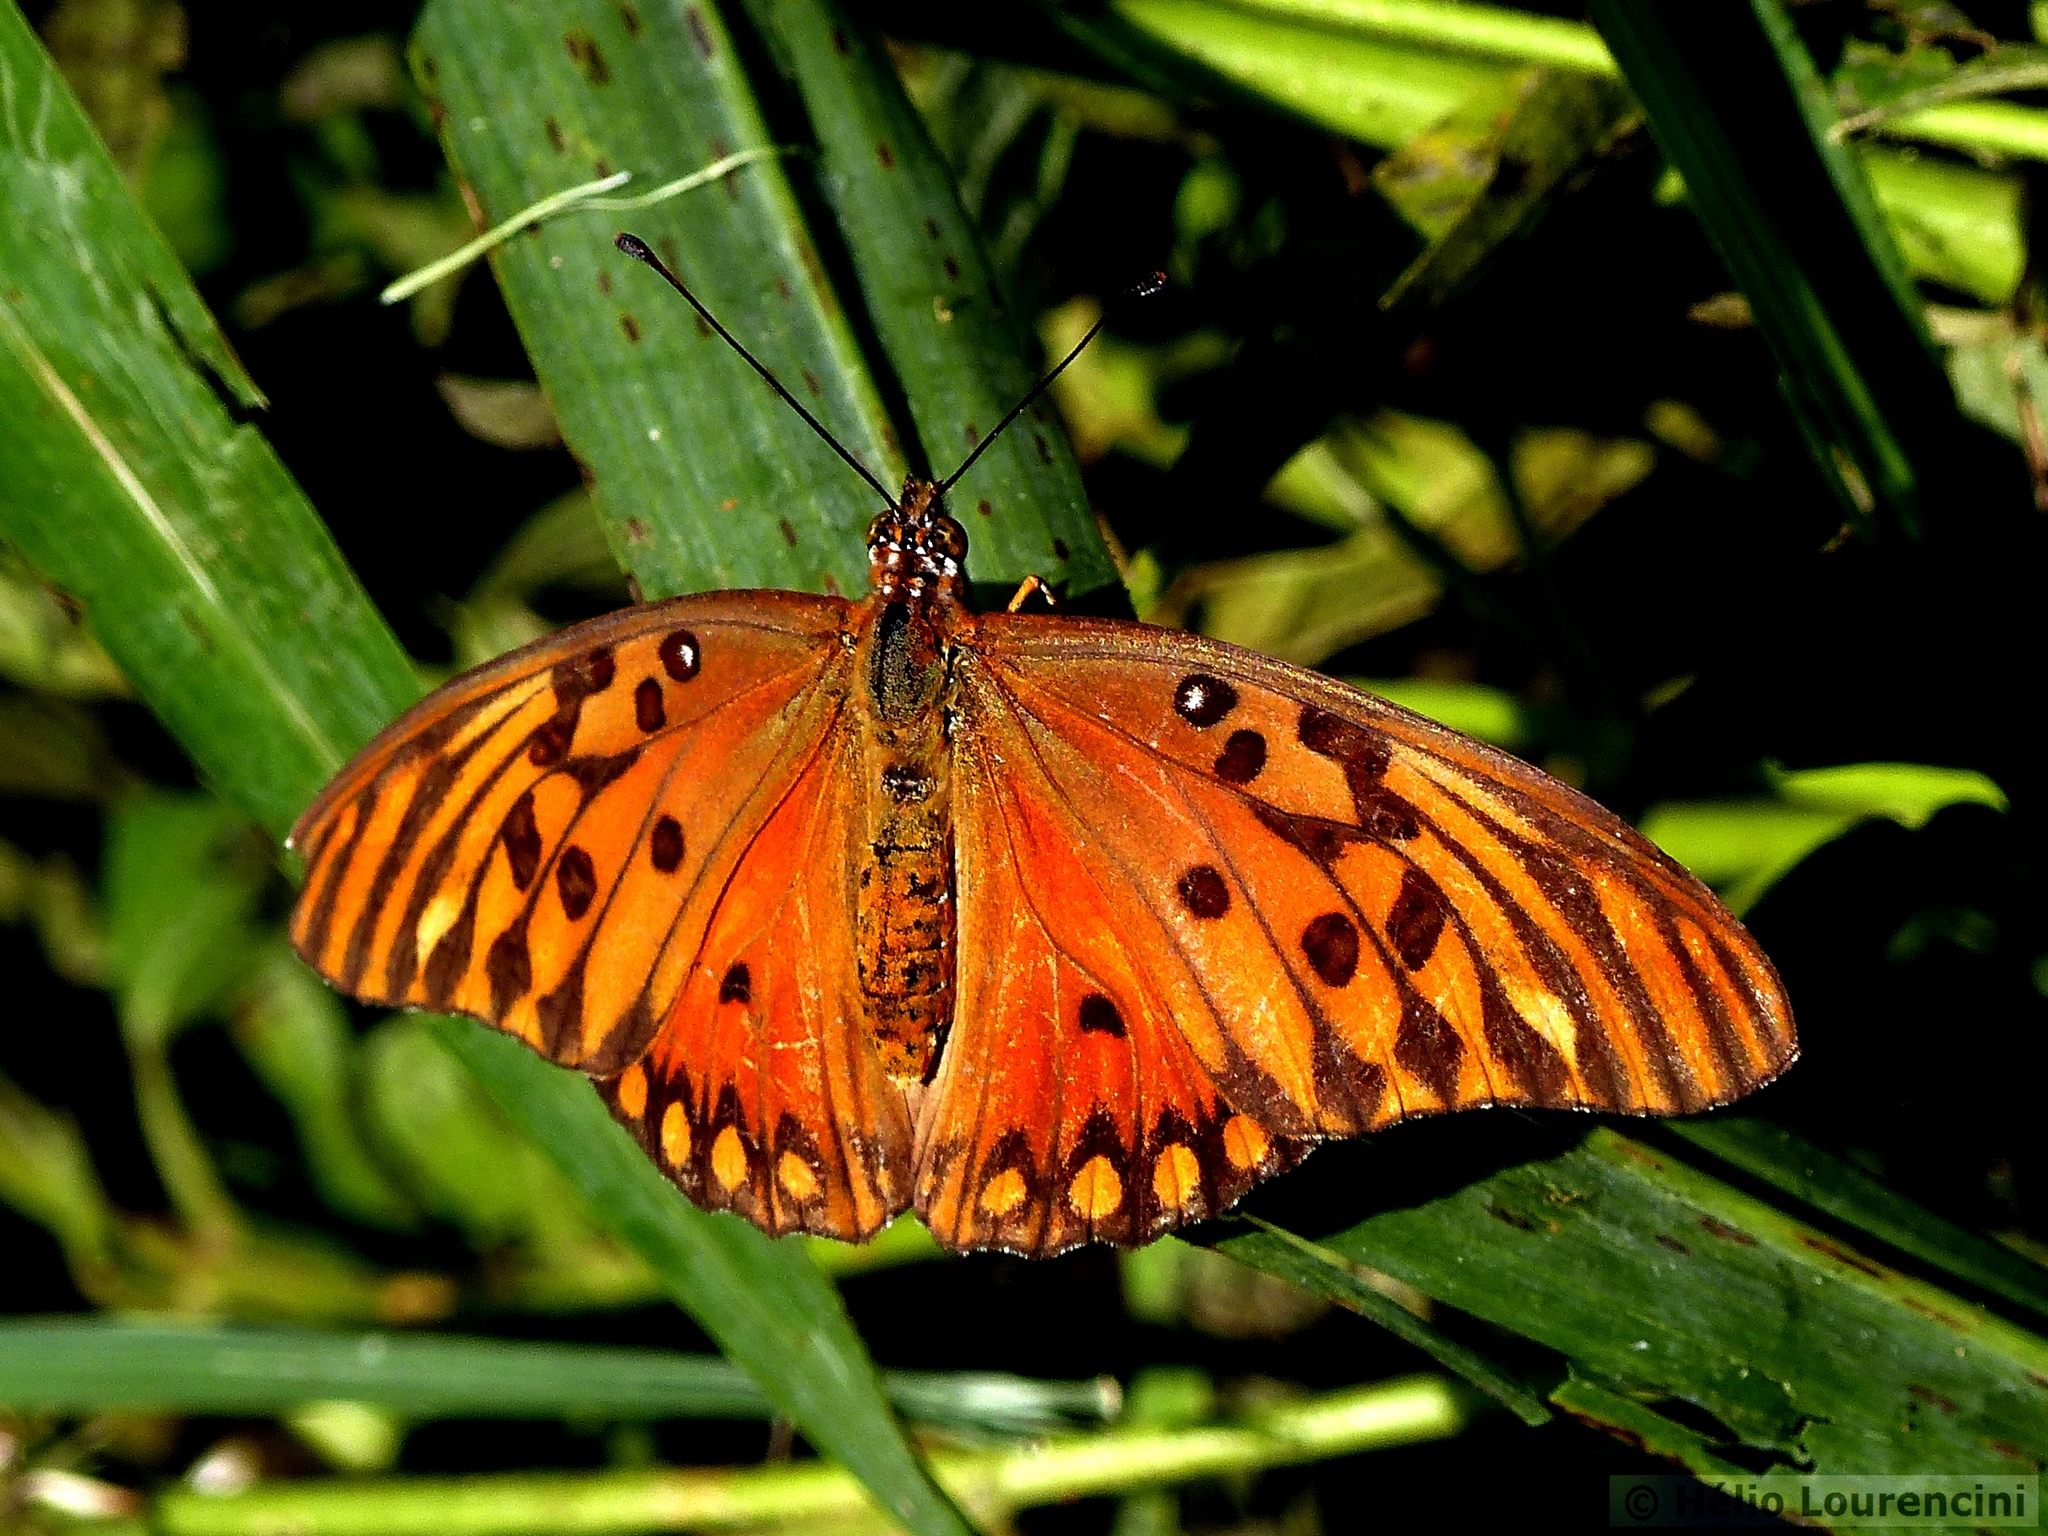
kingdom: Animalia
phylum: Arthropoda
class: Insecta
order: Lepidoptera
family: Nymphalidae
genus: Dione
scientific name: Dione vanillae
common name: Gulf fritillary
